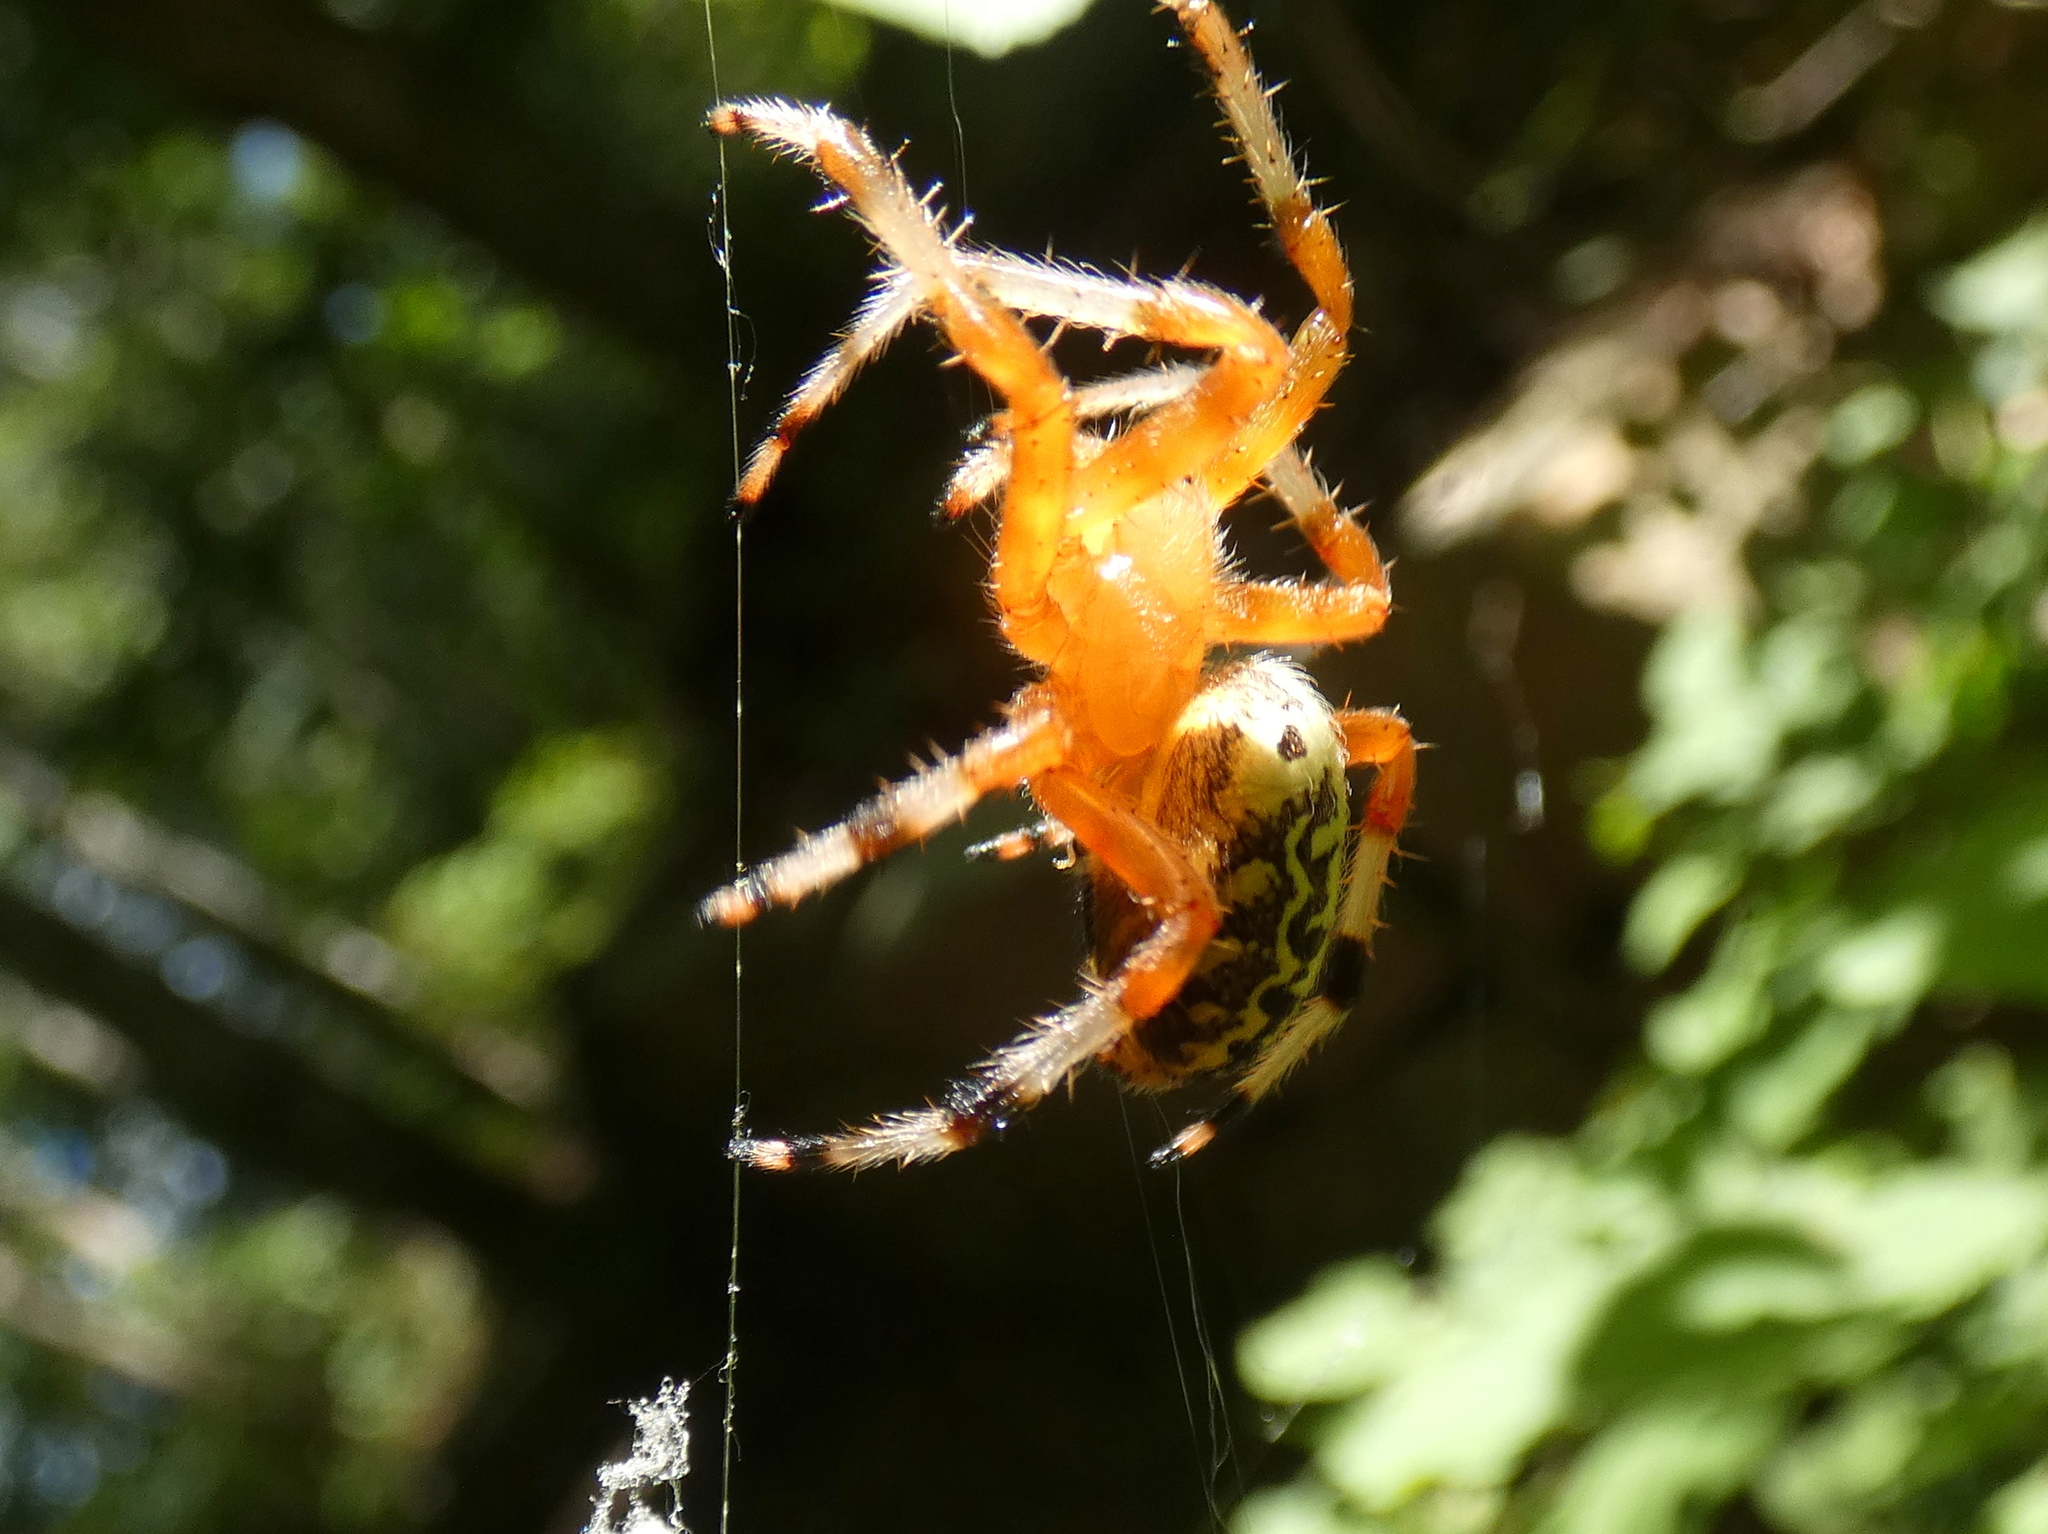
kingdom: Animalia
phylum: Arthropoda
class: Arachnida
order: Araneae
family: Araneidae
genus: Araneus
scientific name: Araneus marmoreus
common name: Marbled orbweaver
